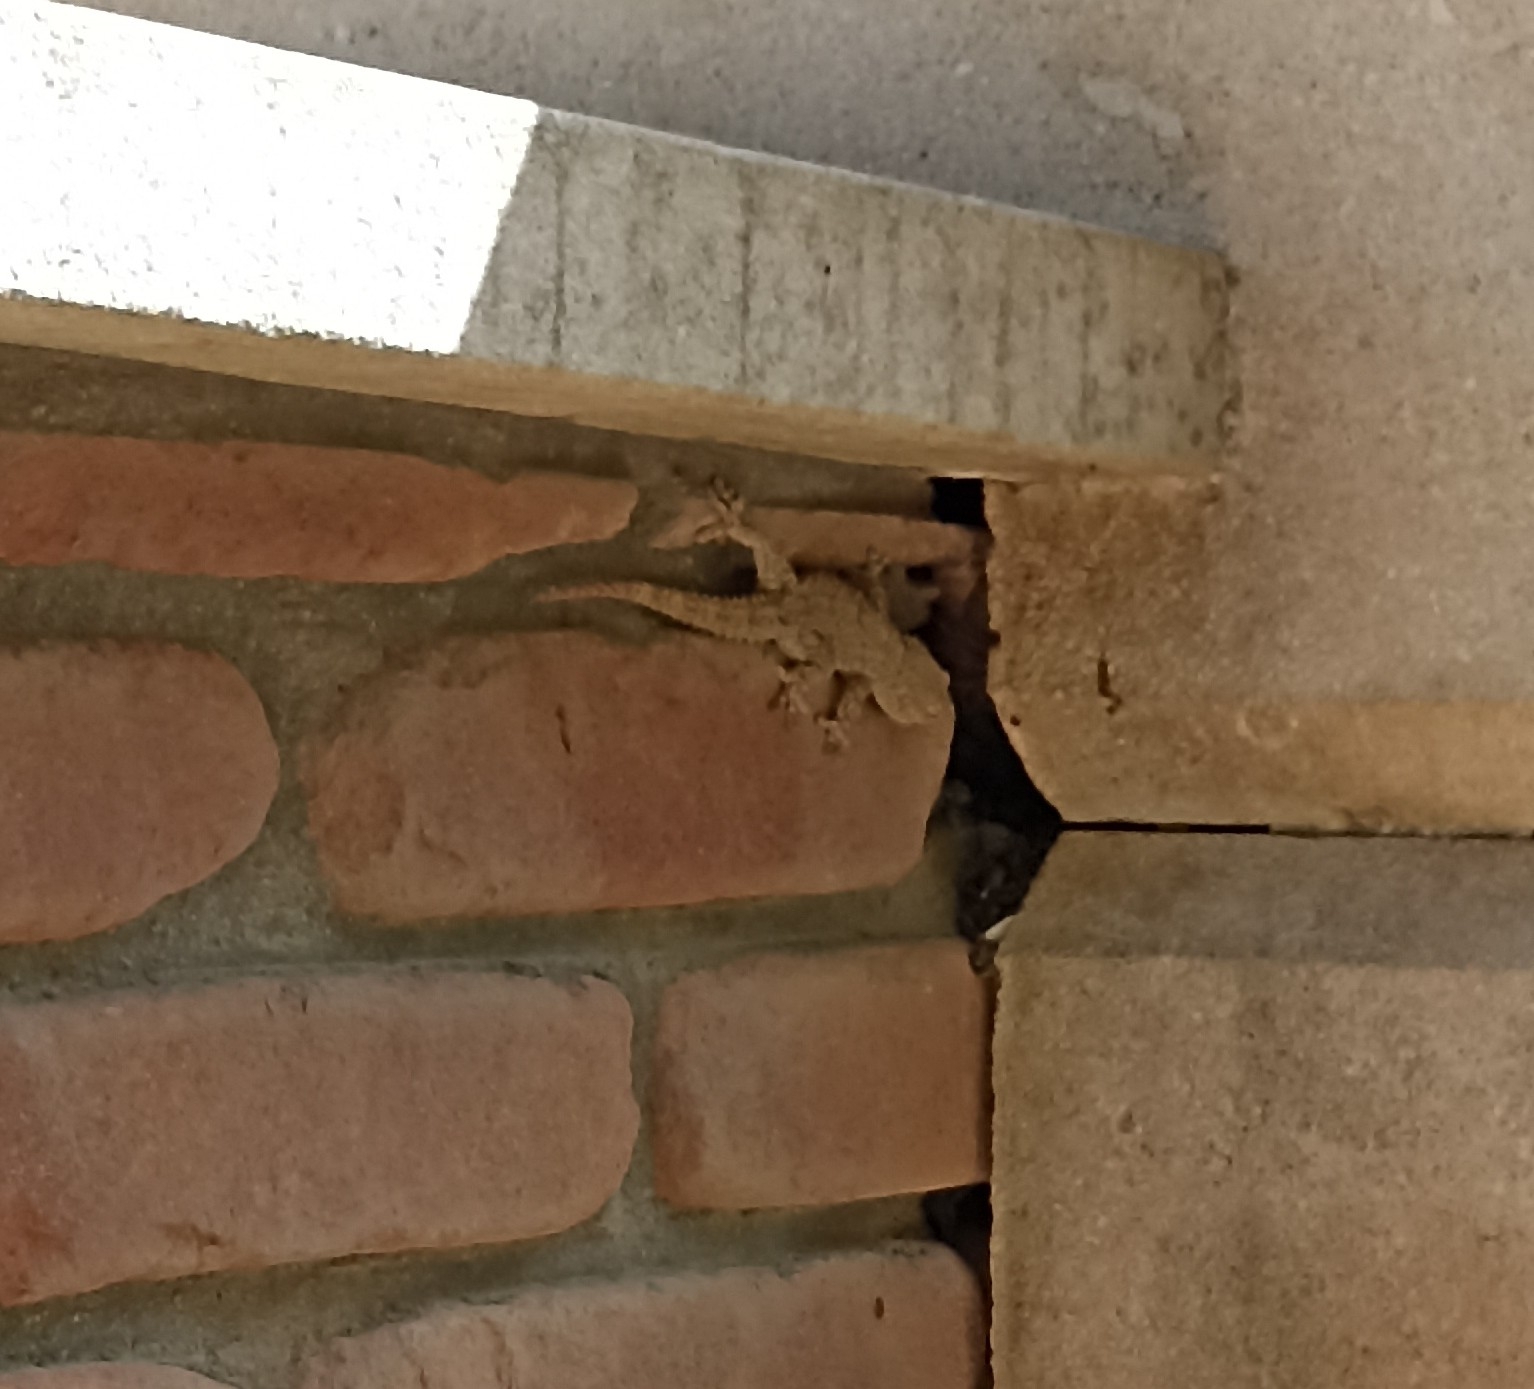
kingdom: Animalia
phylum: Chordata
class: Squamata
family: Phyllodactylidae
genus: Tarentola
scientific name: Tarentola mauritanica
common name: Moorish gecko
